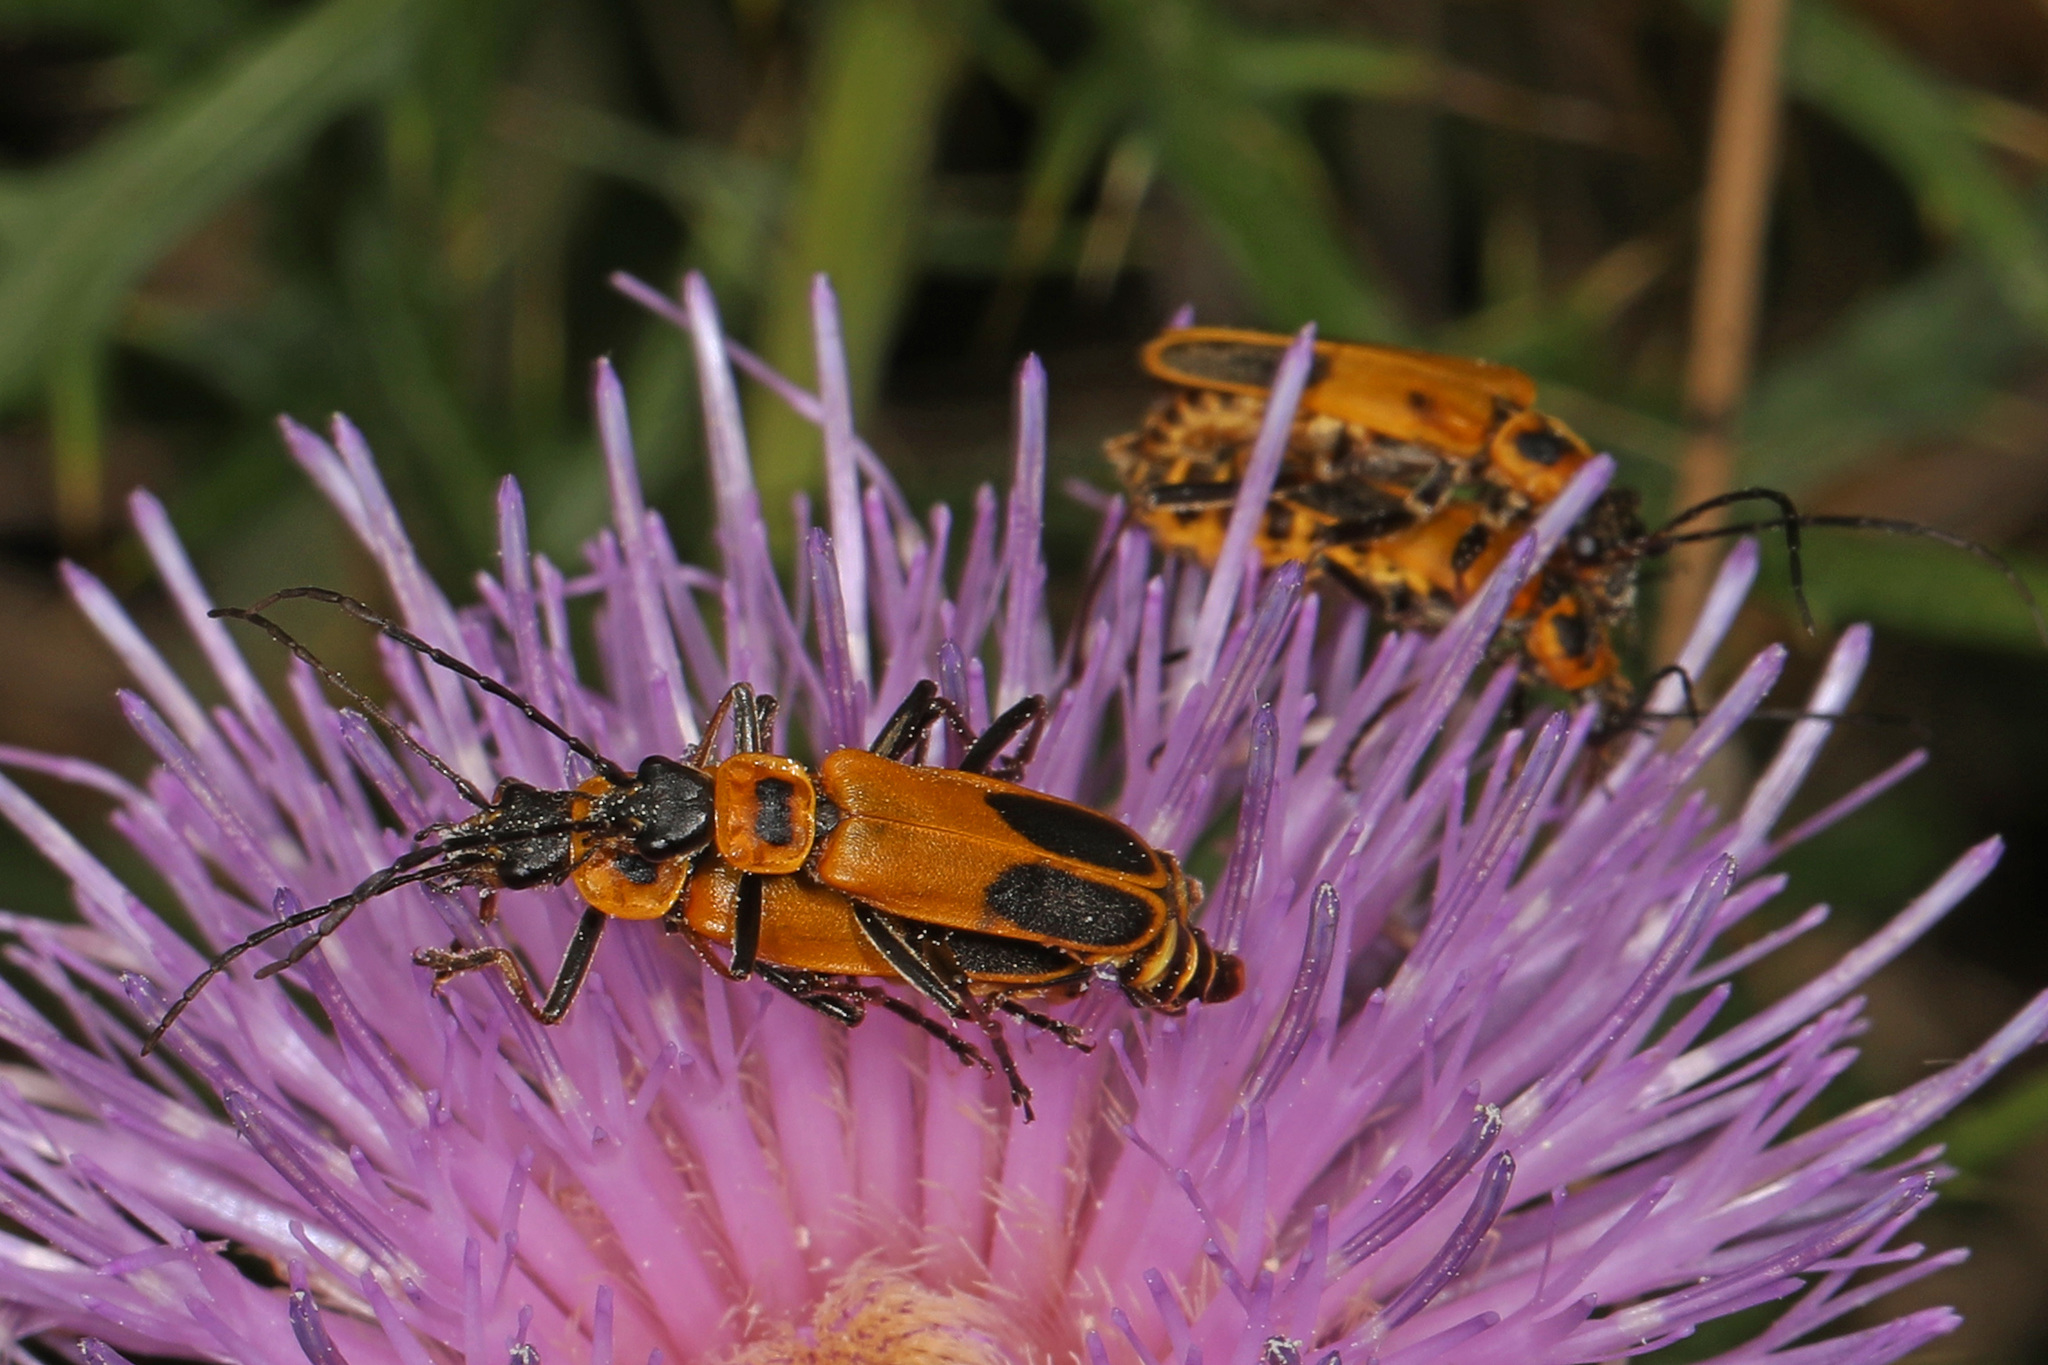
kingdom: Animalia
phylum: Arthropoda
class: Insecta
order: Coleoptera
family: Cantharidae
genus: Chauliognathus
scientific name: Chauliognathus pensylvanicus
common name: Goldenrod soldier beetle
